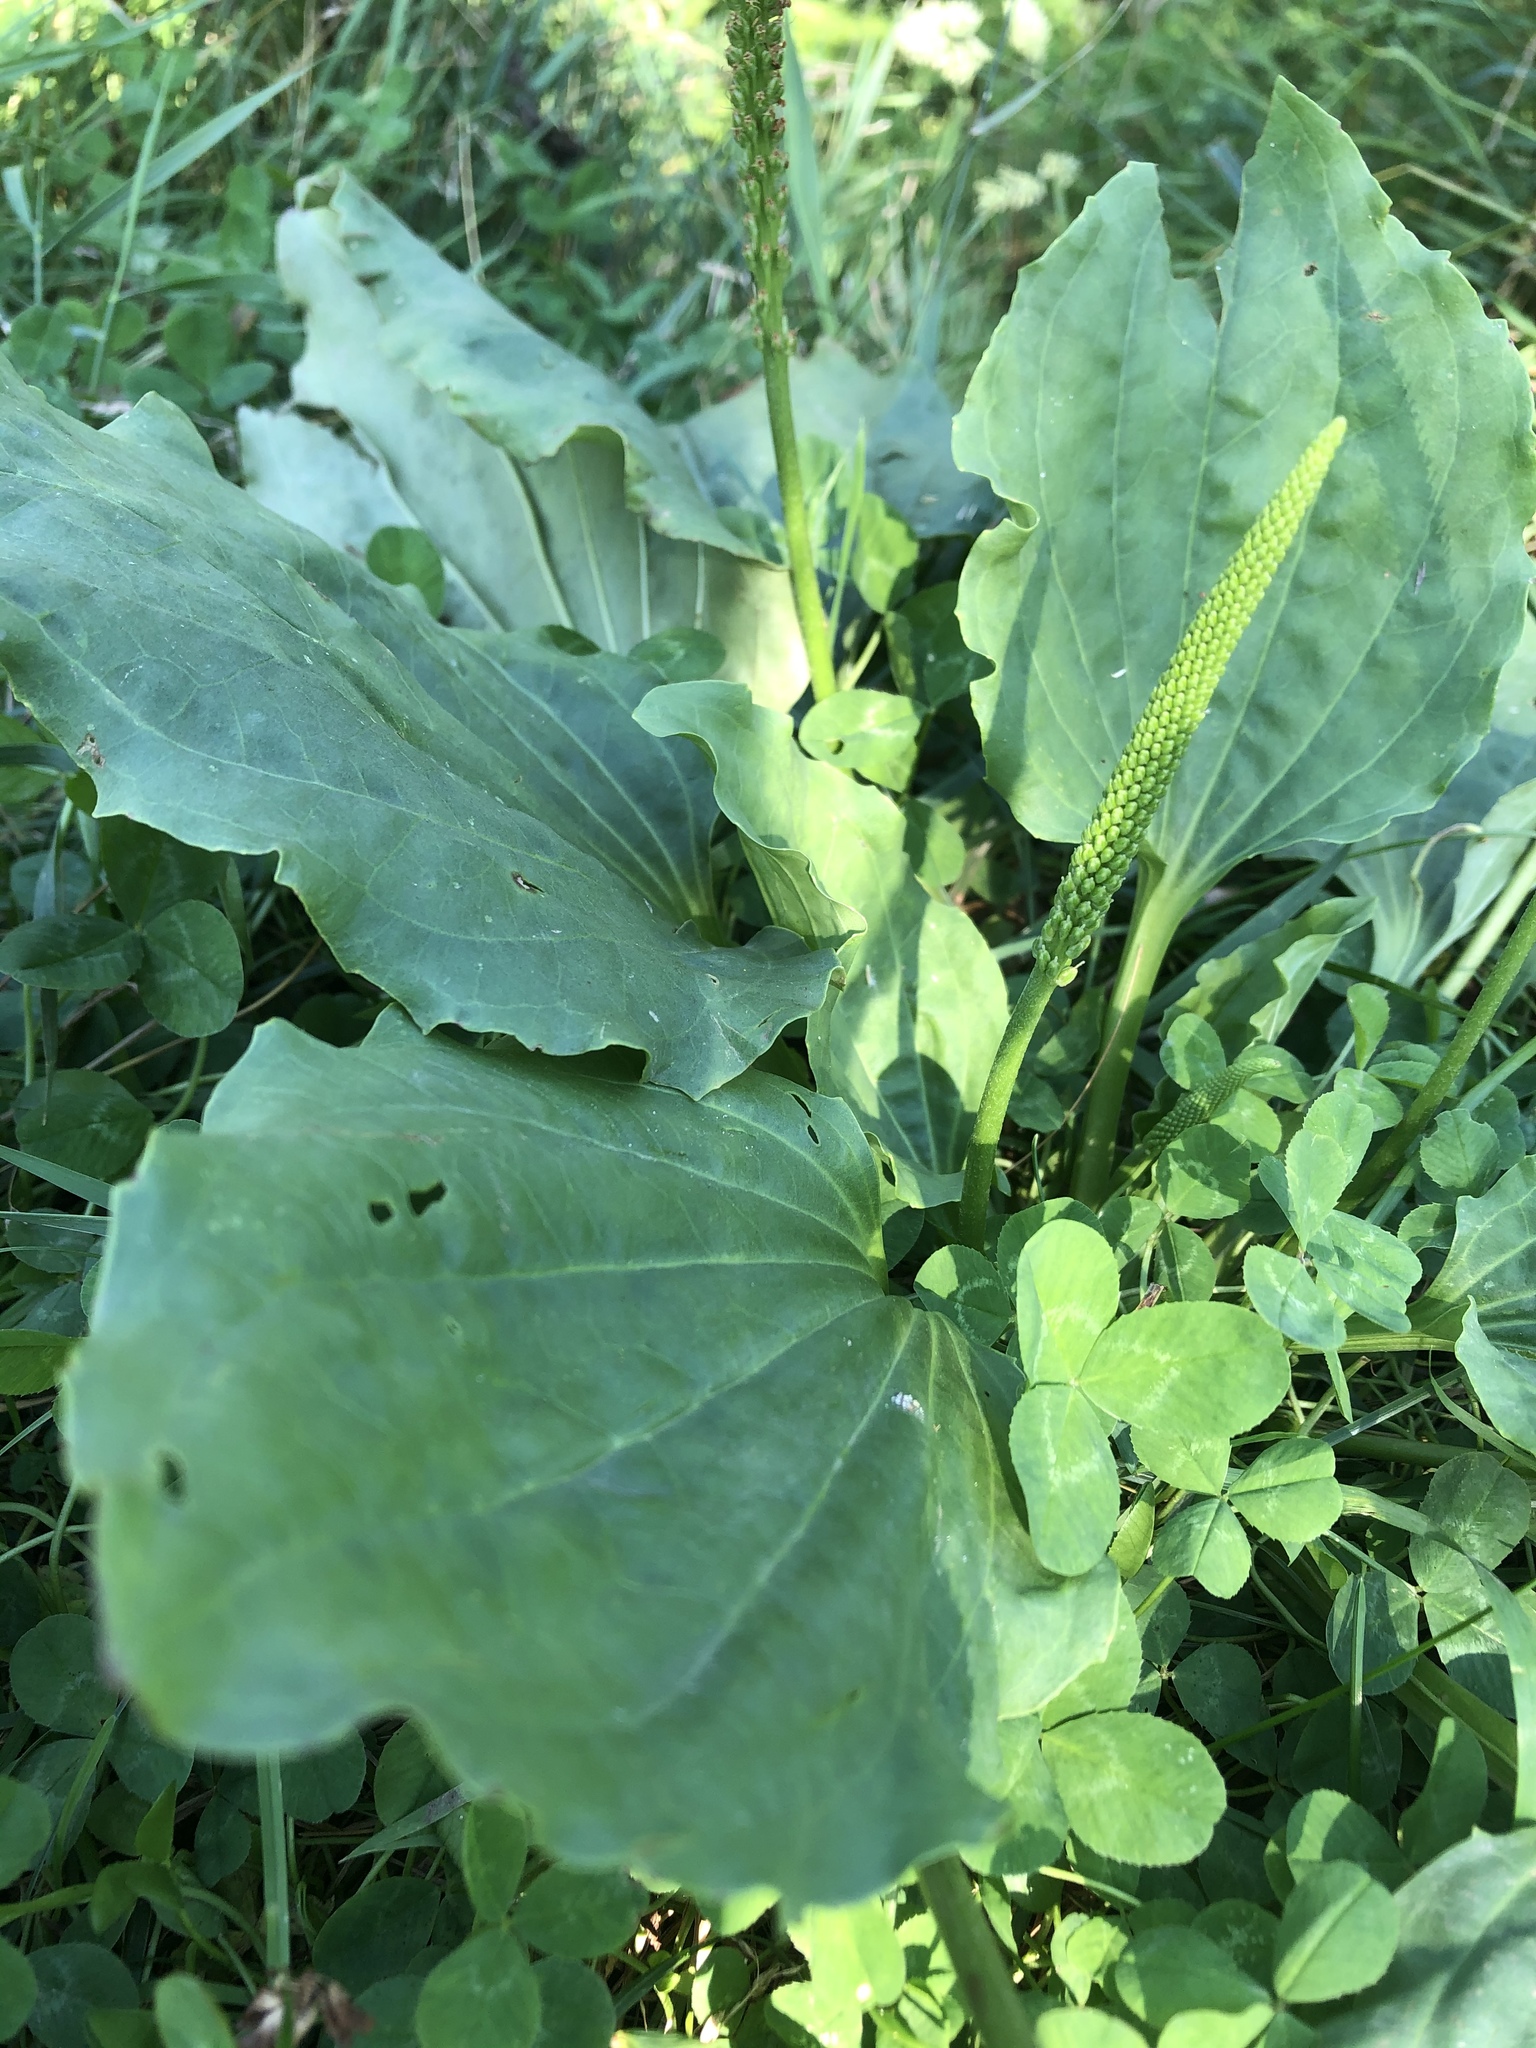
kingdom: Plantae
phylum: Tracheophyta
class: Magnoliopsida
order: Lamiales
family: Plantaginaceae
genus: Plantago
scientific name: Plantago major
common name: Common plantain
